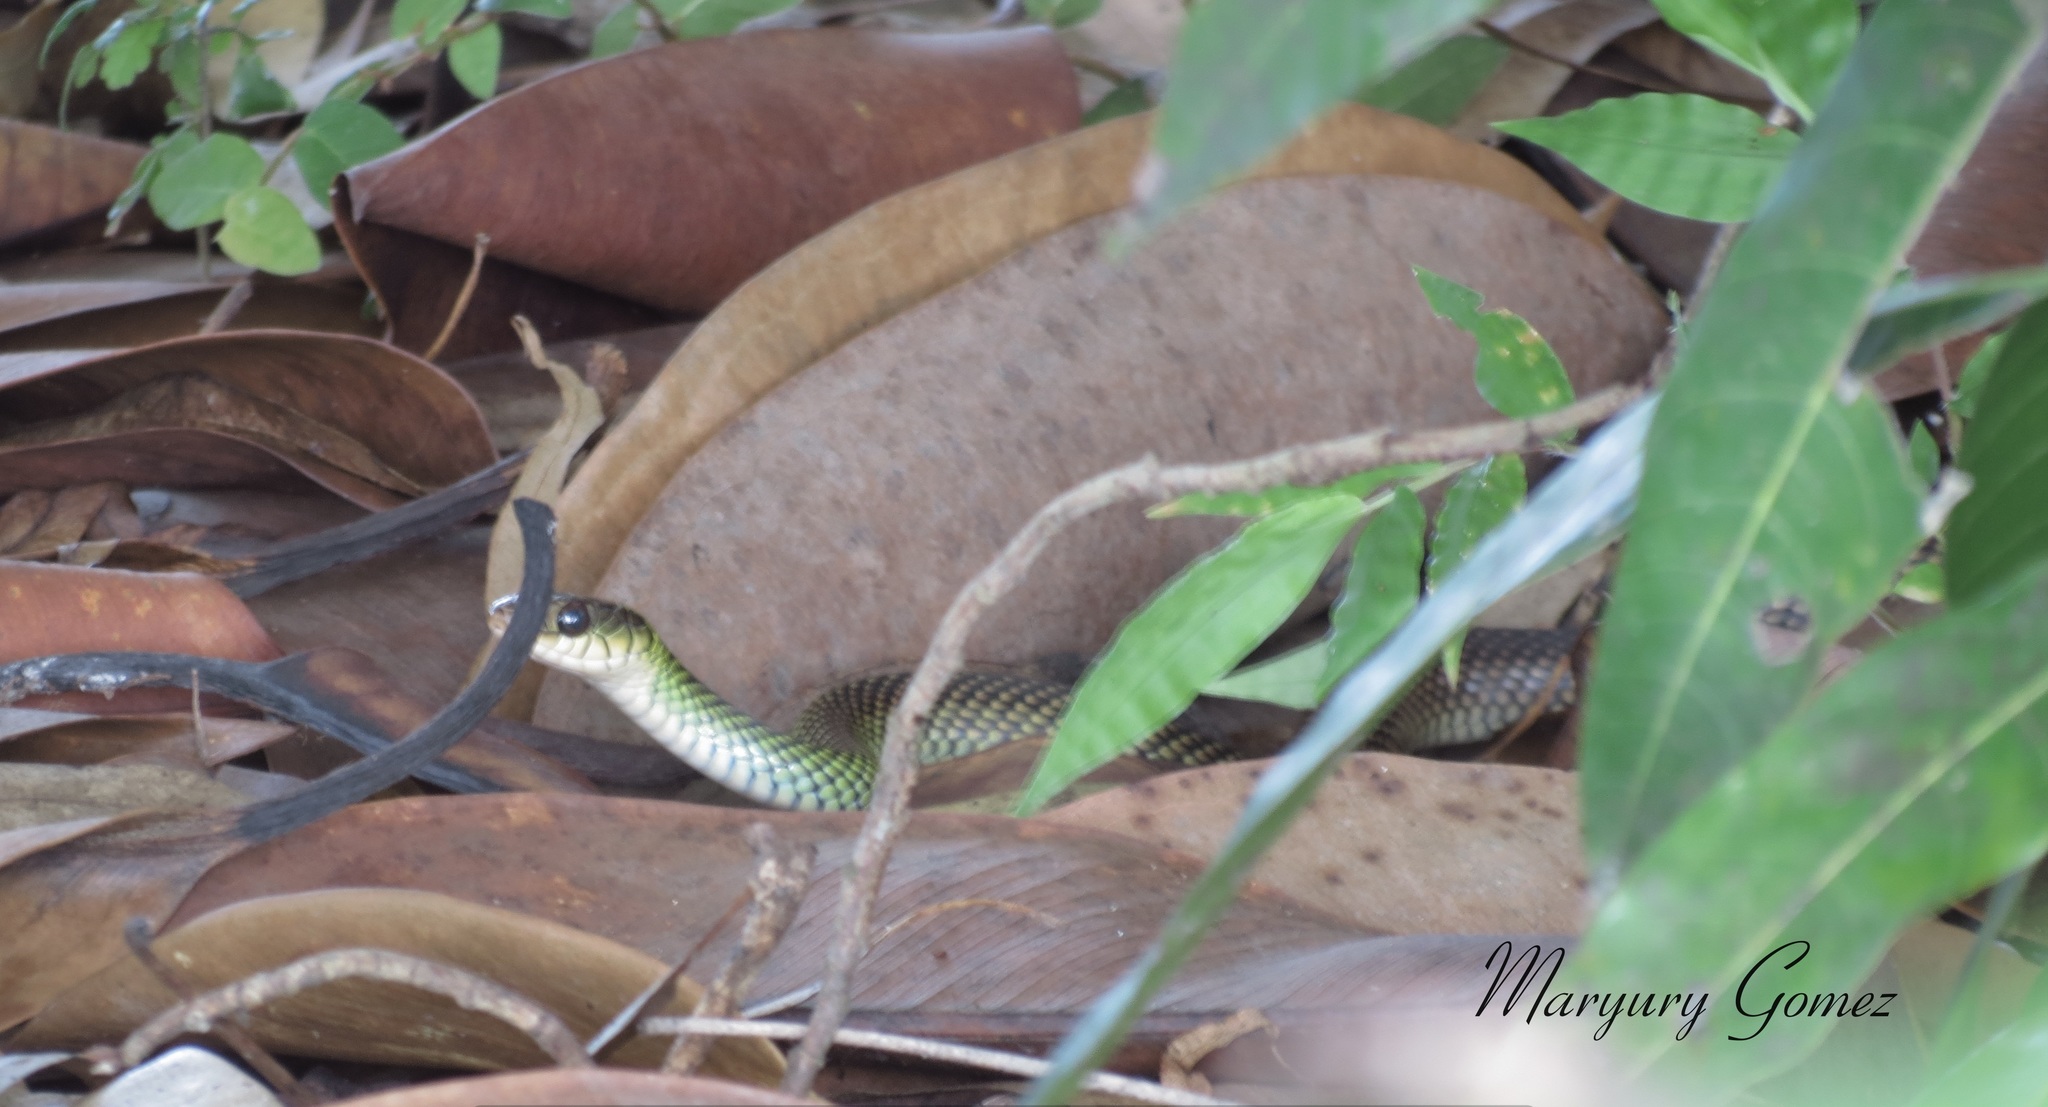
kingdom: Animalia
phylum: Chordata
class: Squamata
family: Colubridae
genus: Drymobius
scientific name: Drymobius margaritiferus
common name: Central american speckled racer
